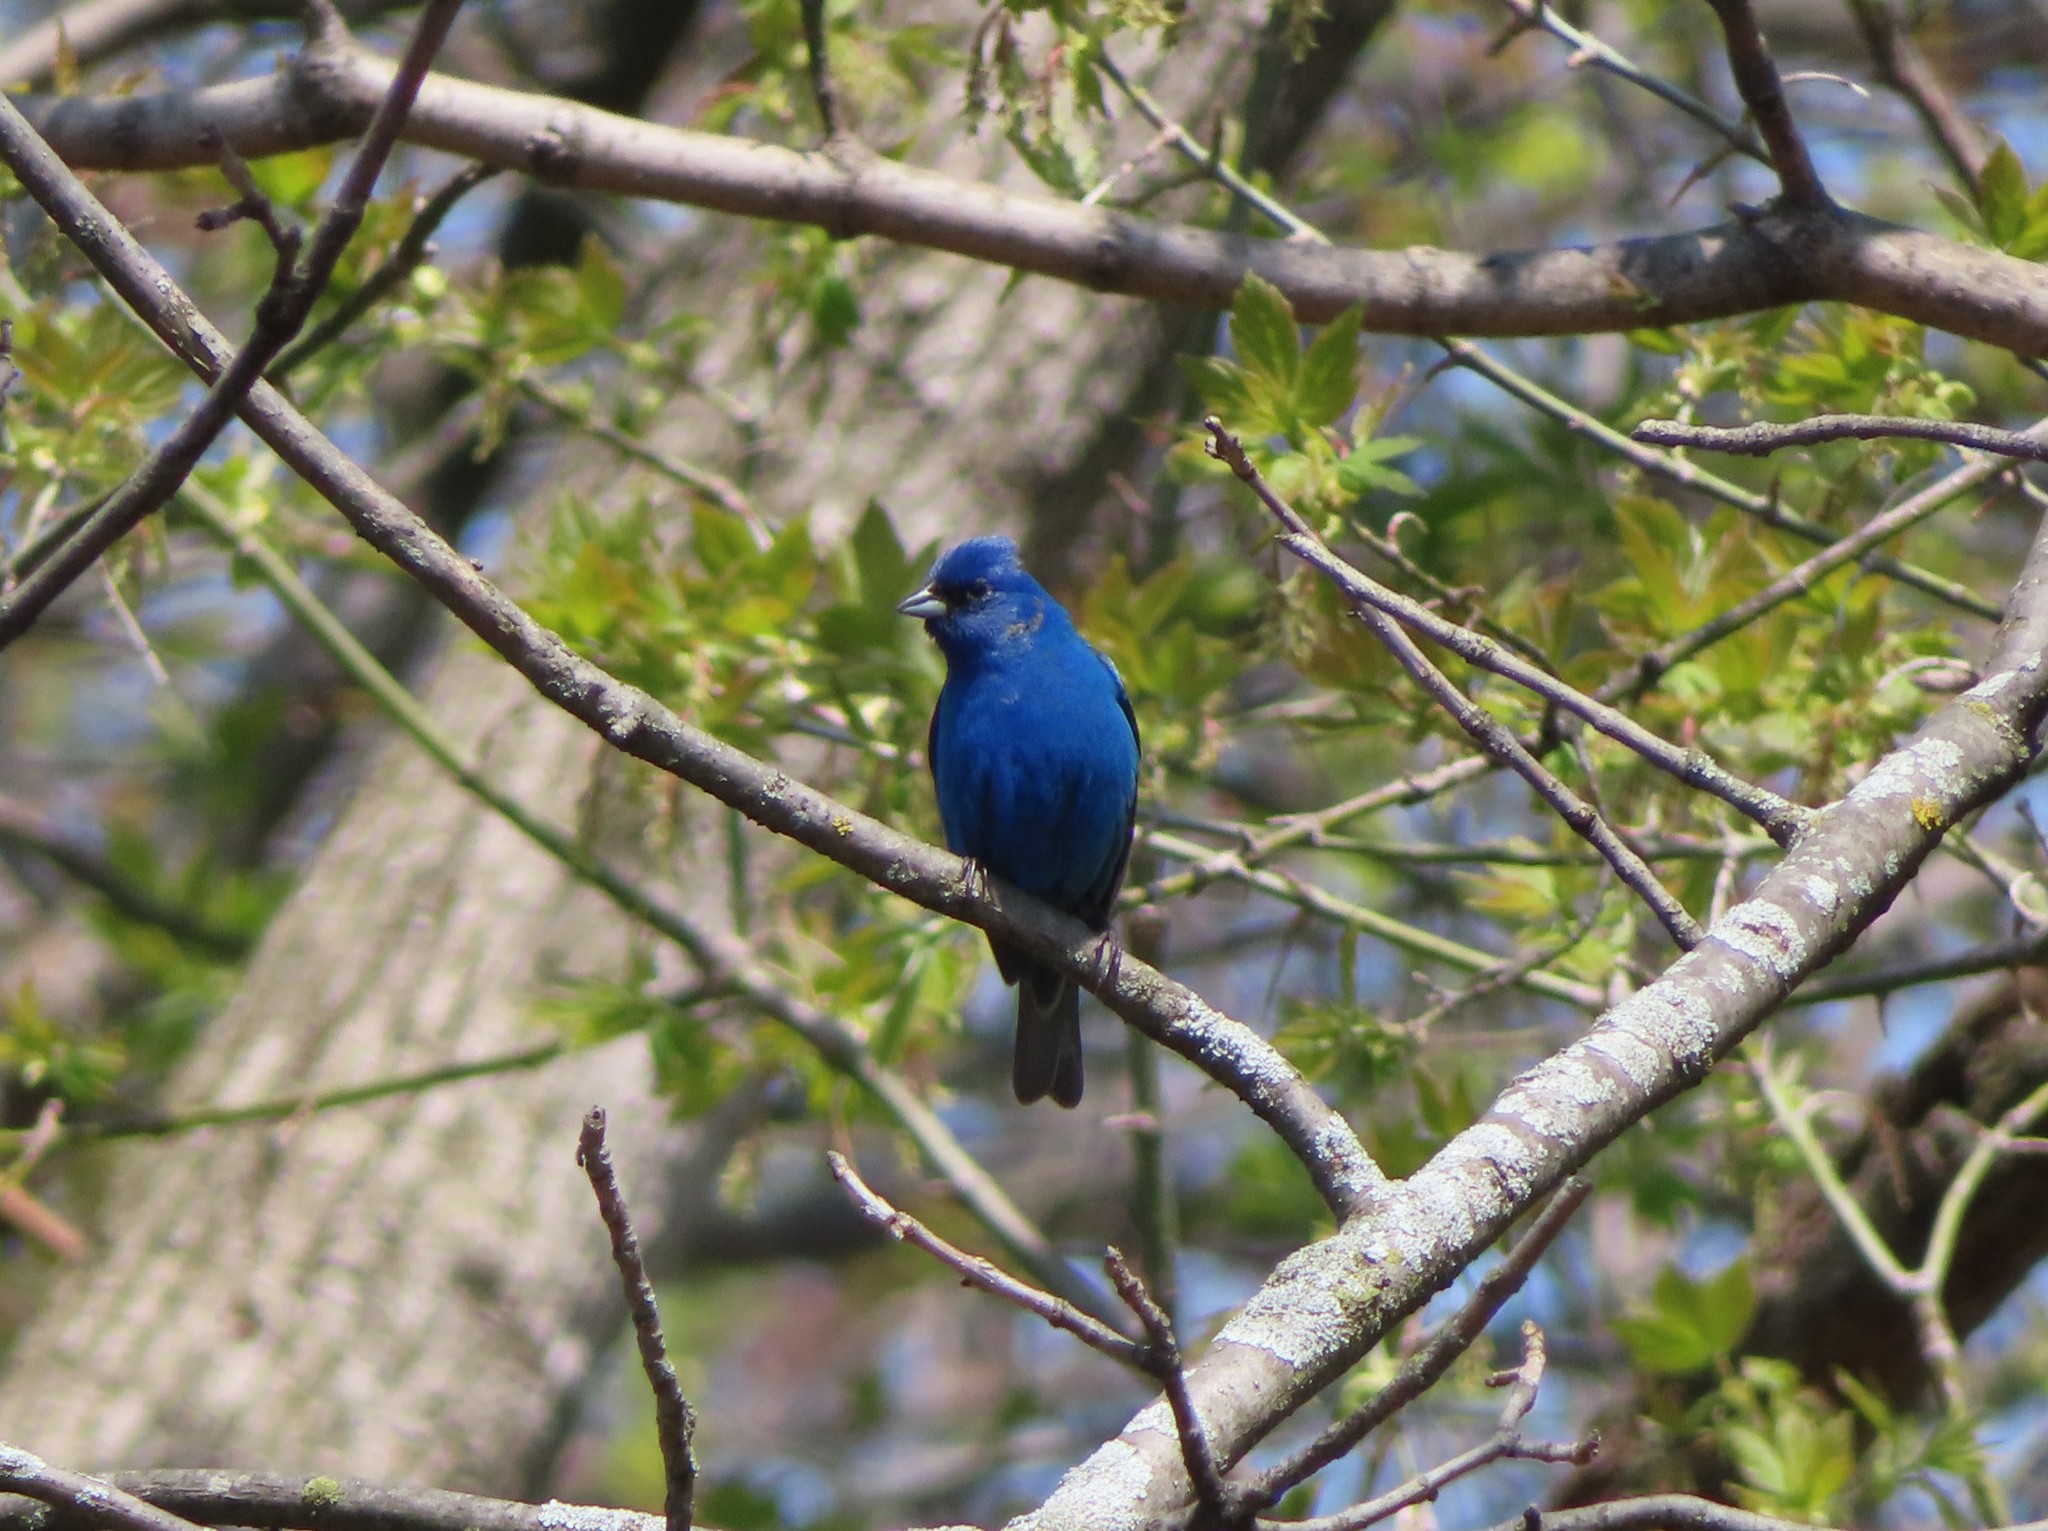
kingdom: Animalia
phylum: Chordata
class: Aves
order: Passeriformes
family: Cardinalidae
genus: Passerina
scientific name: Passerina cyanea
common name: Indigo bunting
